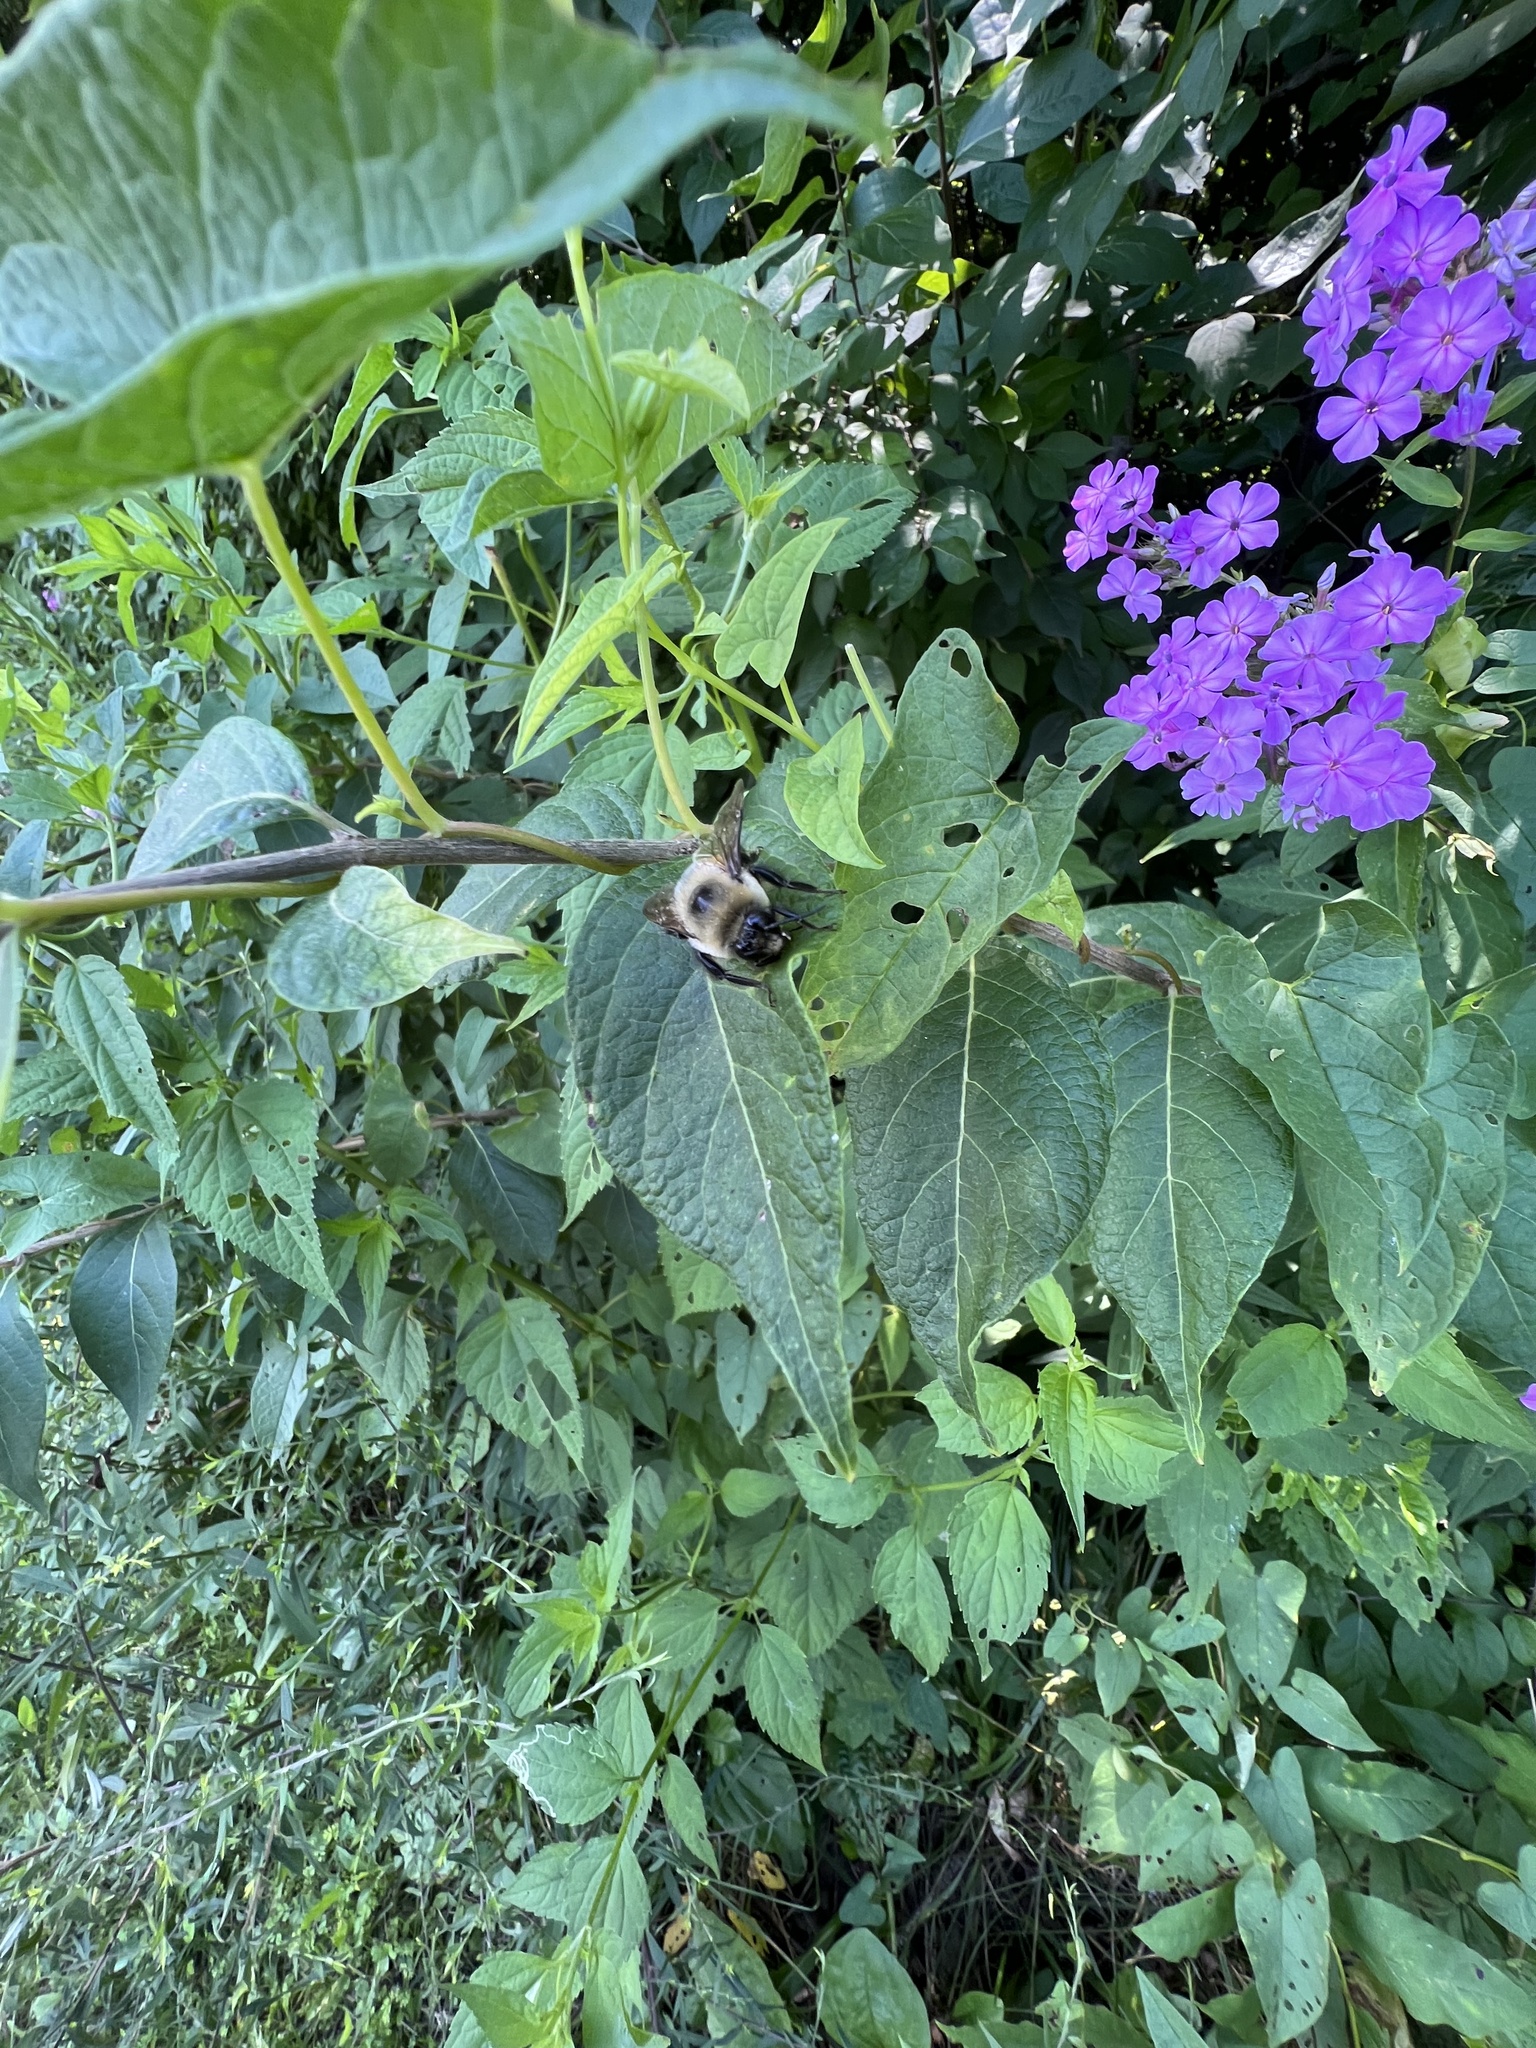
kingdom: Animalia
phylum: Arthropoda
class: Insecta
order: Hymenoptera
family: Apidae
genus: Bombus
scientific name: Bombus griseocollis
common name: Brown-belted bumble bee
